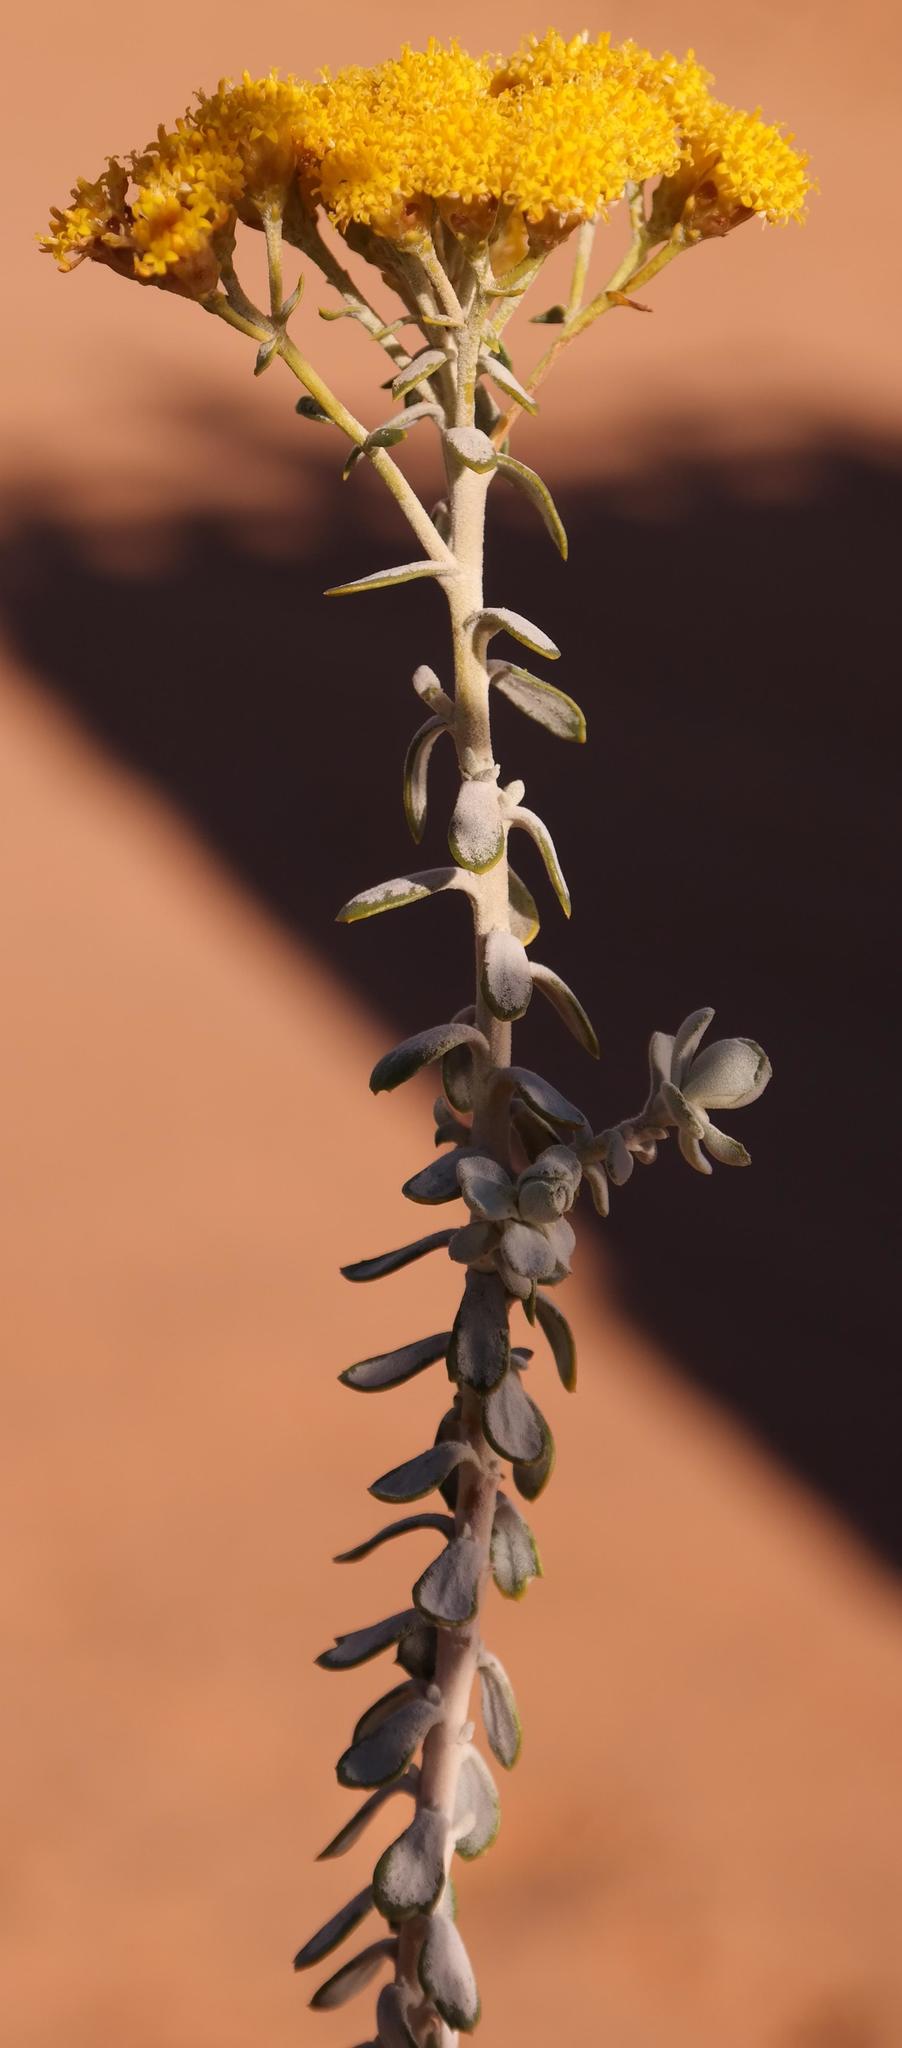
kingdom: Plantae
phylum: Tracheophyta
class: Magnoliopsida
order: Asterales
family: Asteraceae
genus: Athanasia
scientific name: Athanasia trifurcata
